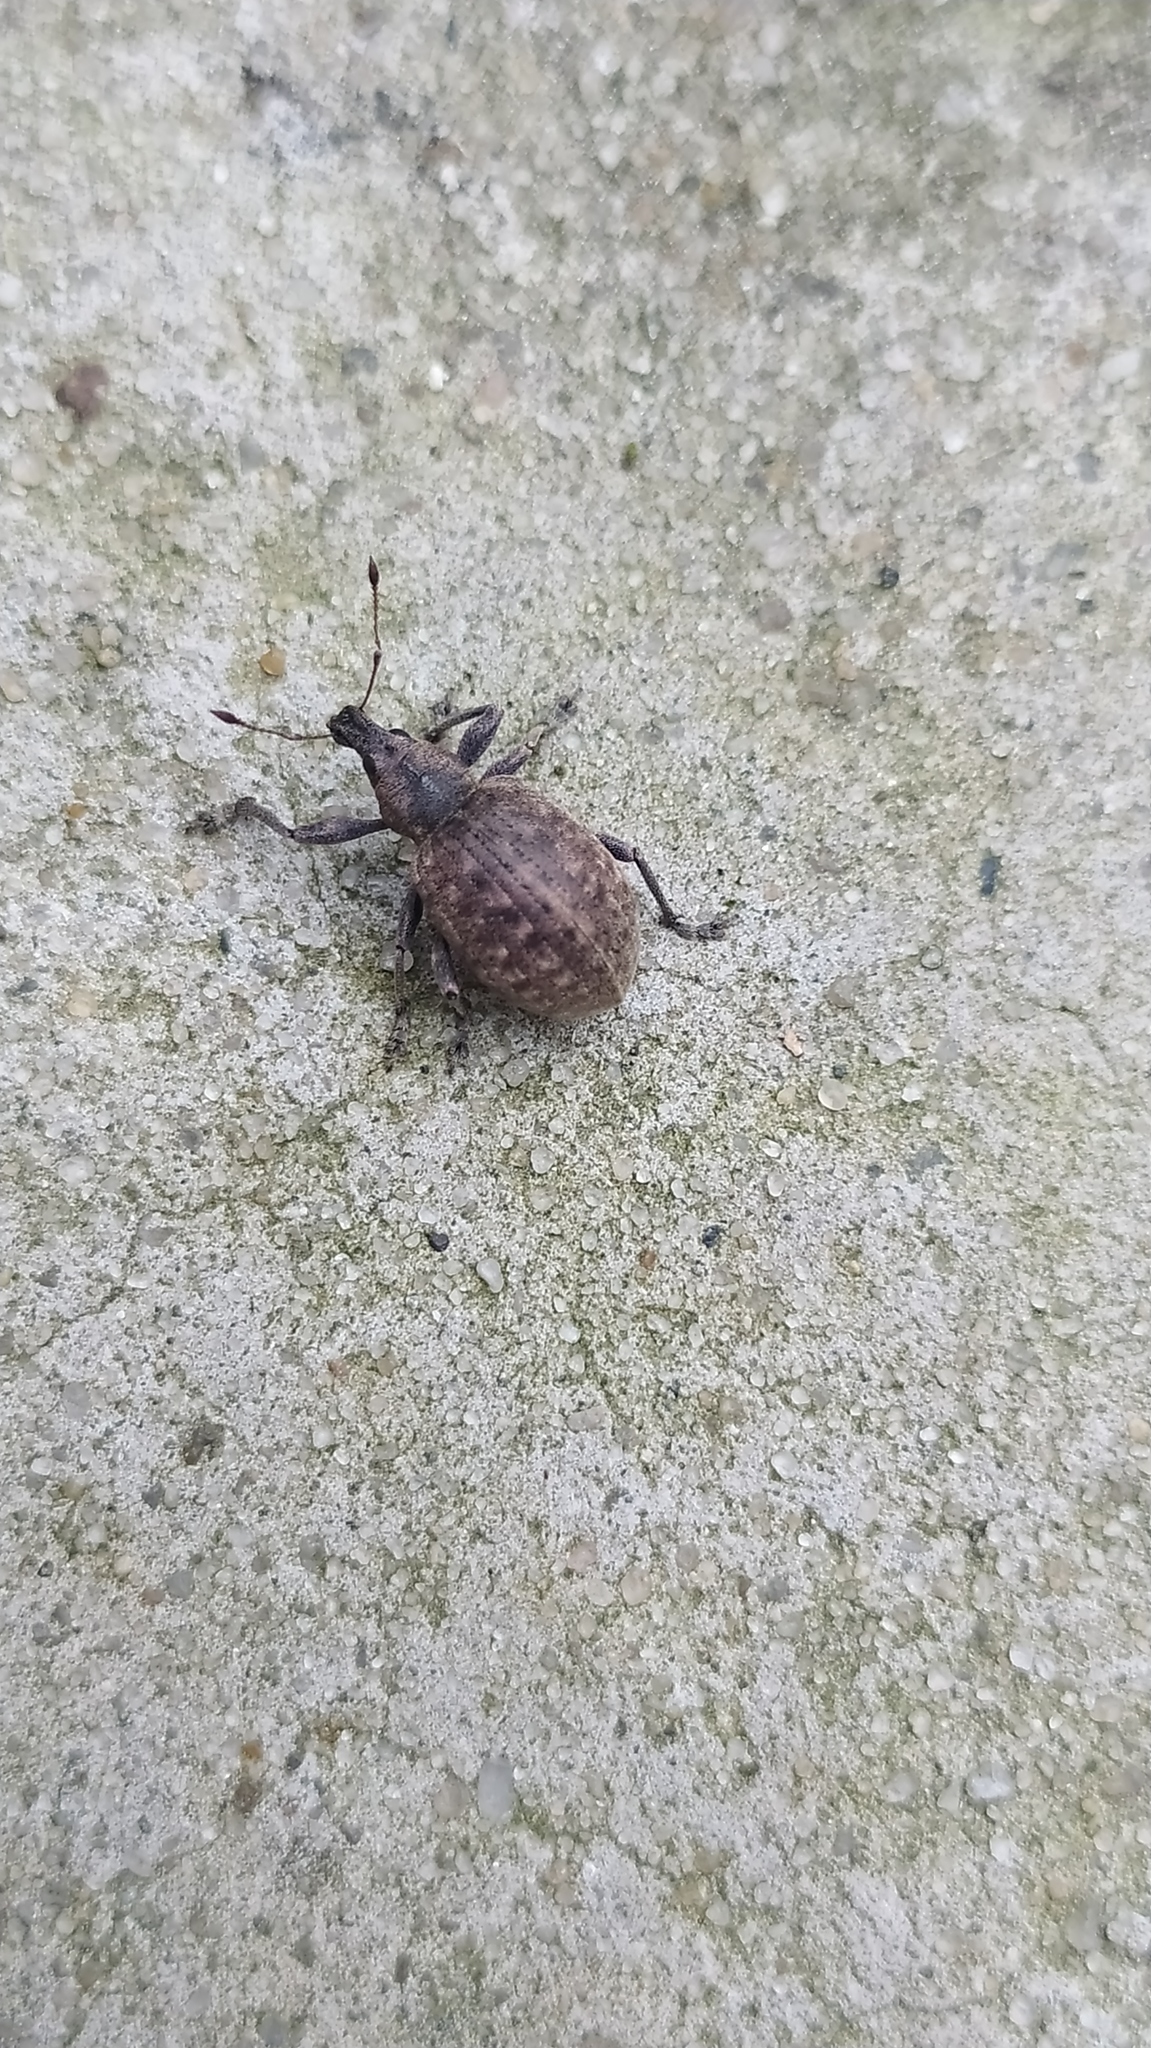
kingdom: Animalia
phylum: Arthropoda
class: Insecta
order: Coleoptera
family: Curculionidae
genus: Liophloeus
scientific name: Liophloeus tessulatus
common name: Weevil
